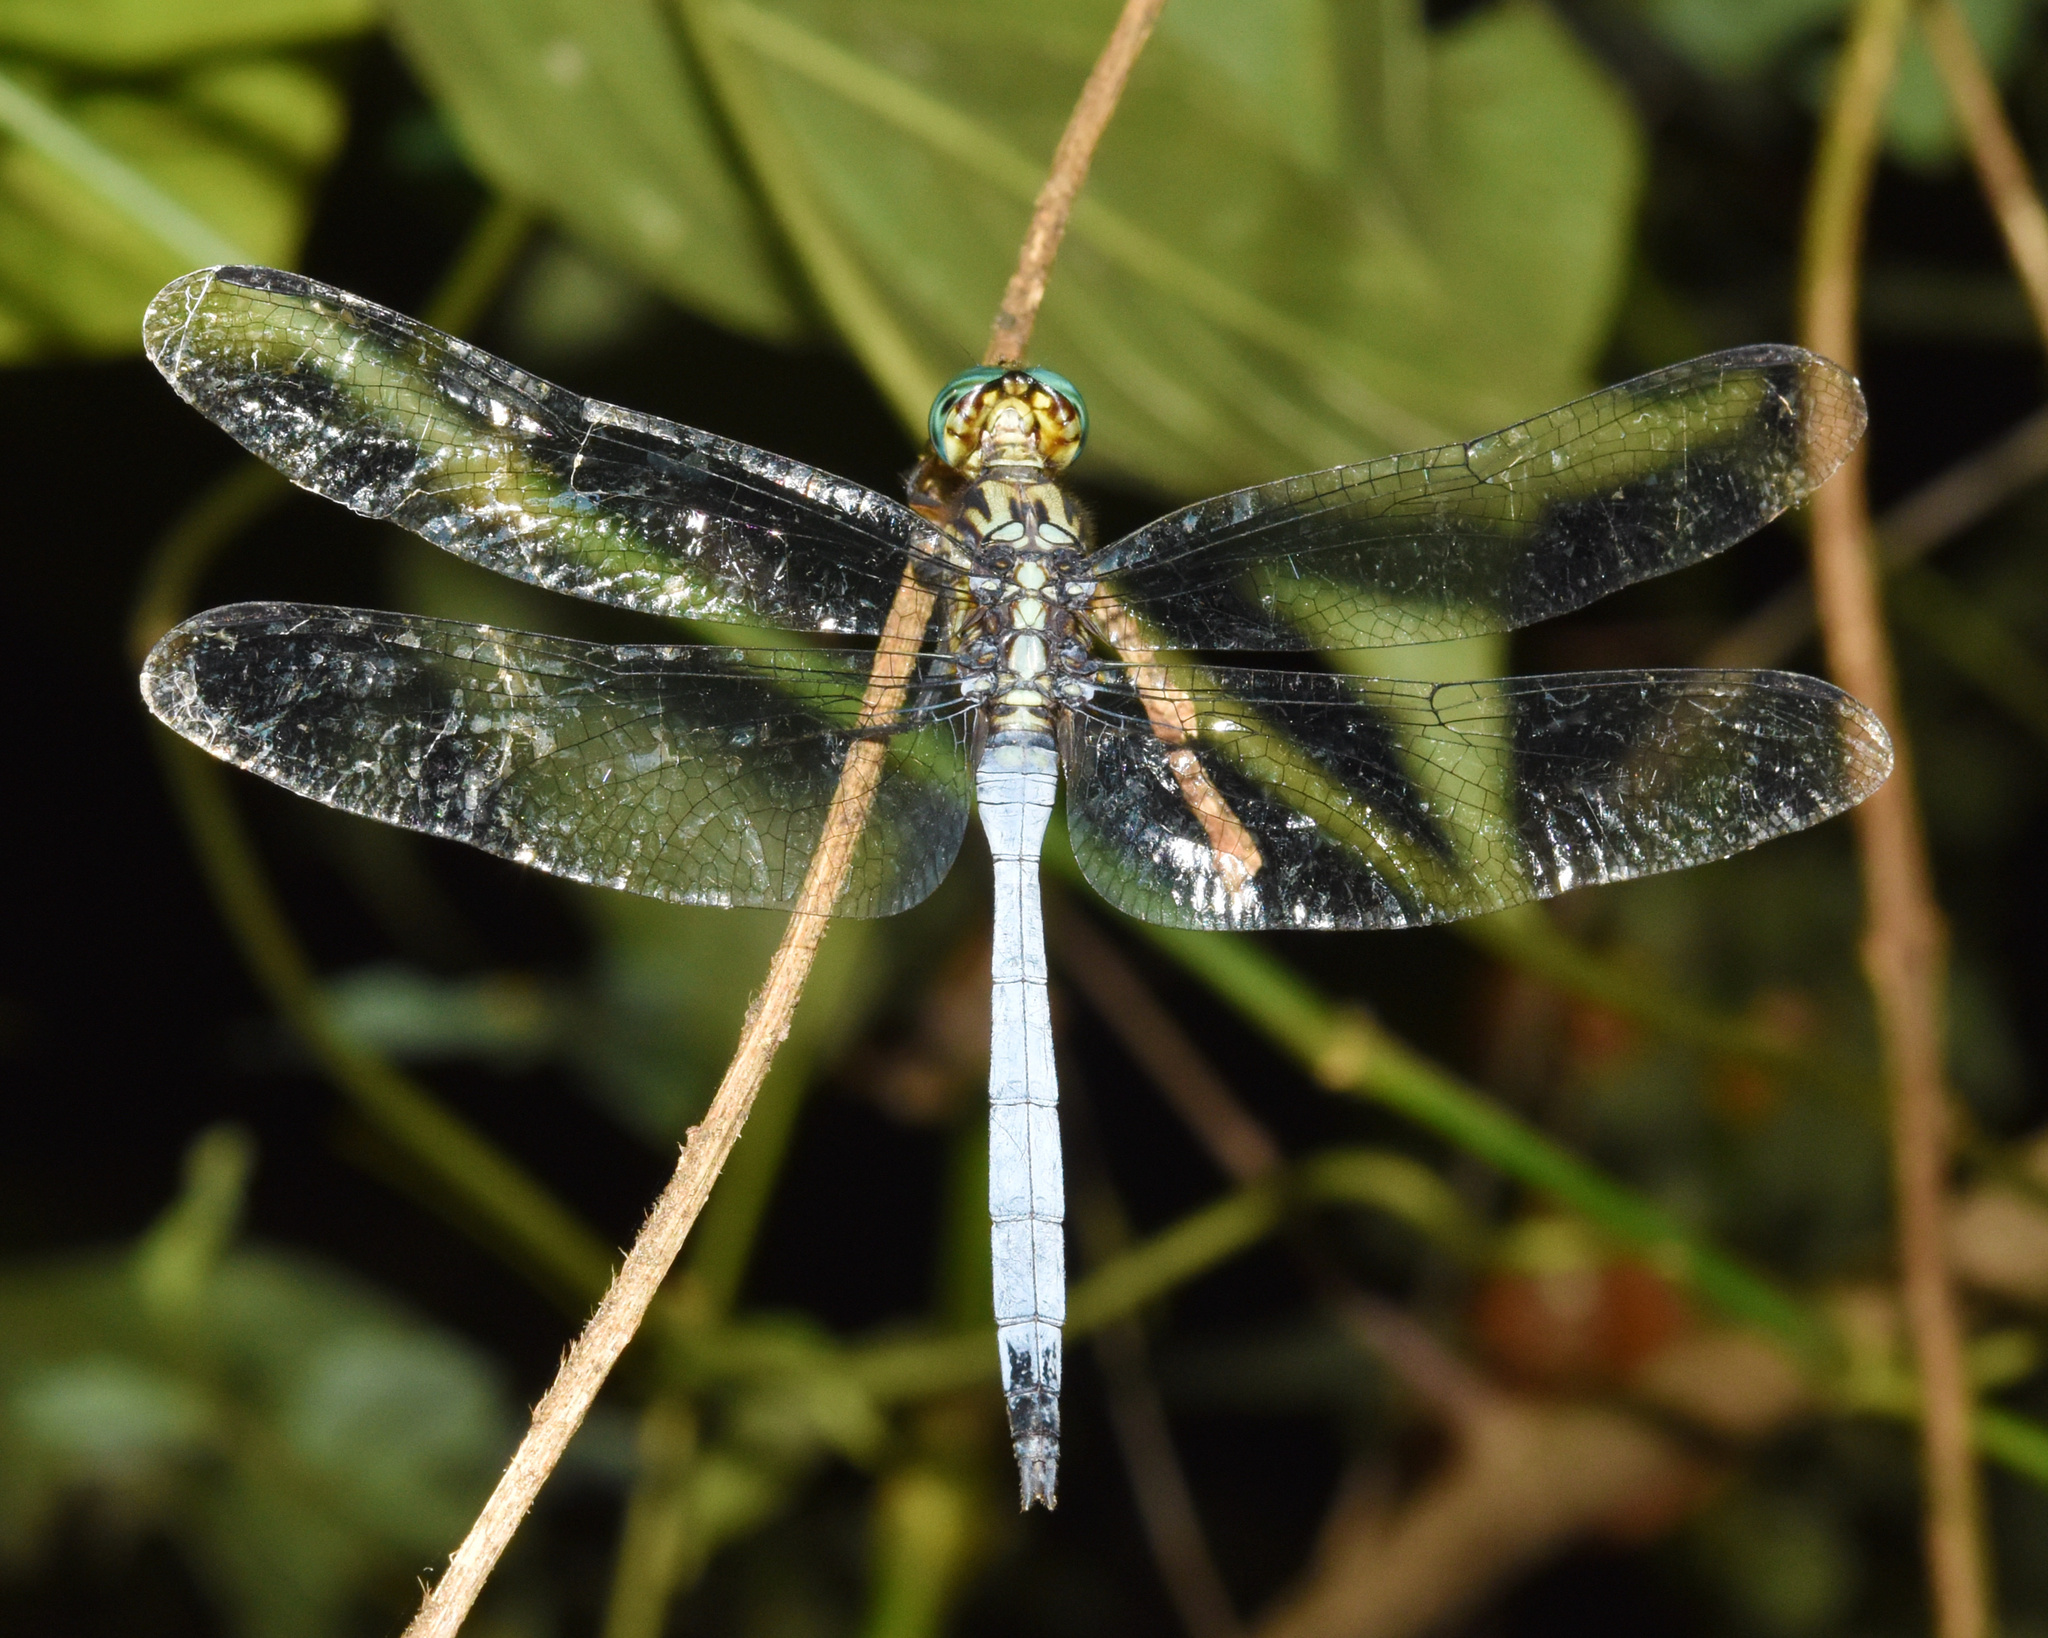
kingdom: Animalia
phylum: Arthropoda
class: Insecta
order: Odonata
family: Libellulidae
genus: Orthetrum
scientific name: Orthetrum julia
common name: Julia skimmer
